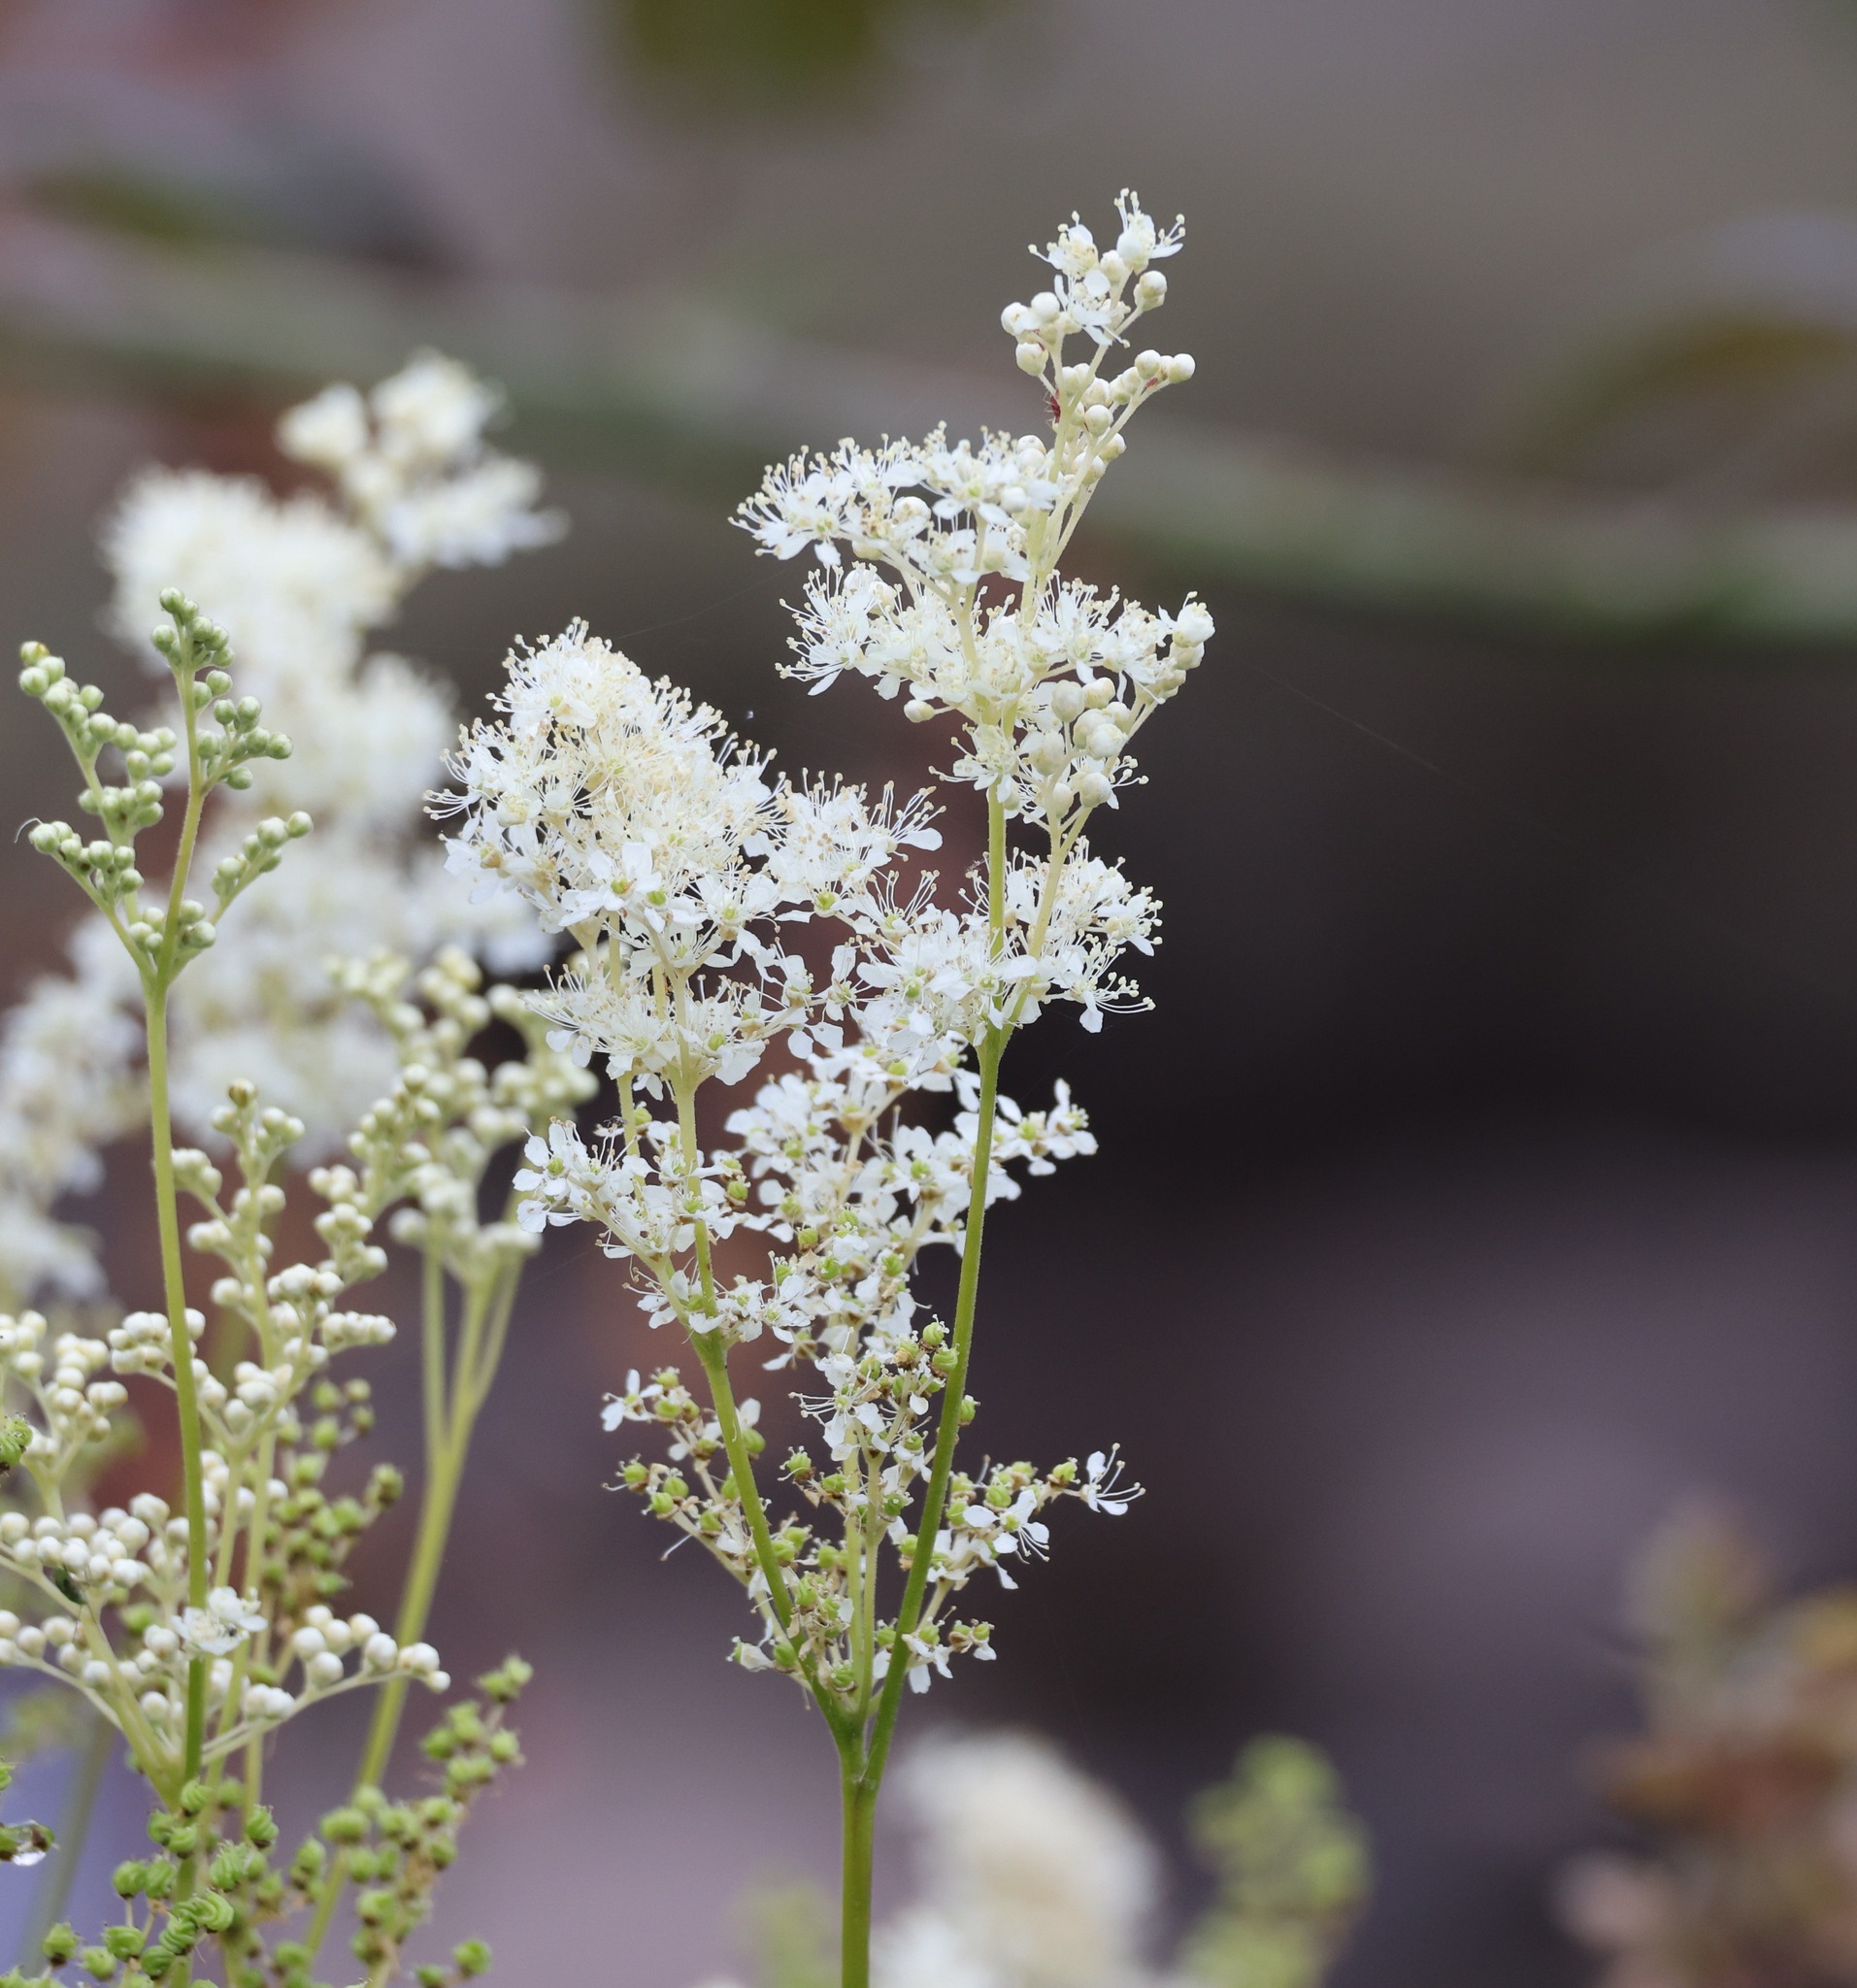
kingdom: Plantae
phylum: Tracheophyta
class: Magnoliopsida
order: Rosales
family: Rosaceae
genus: Filipendula
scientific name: Filipendula ulmaria
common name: Meadowsweet
